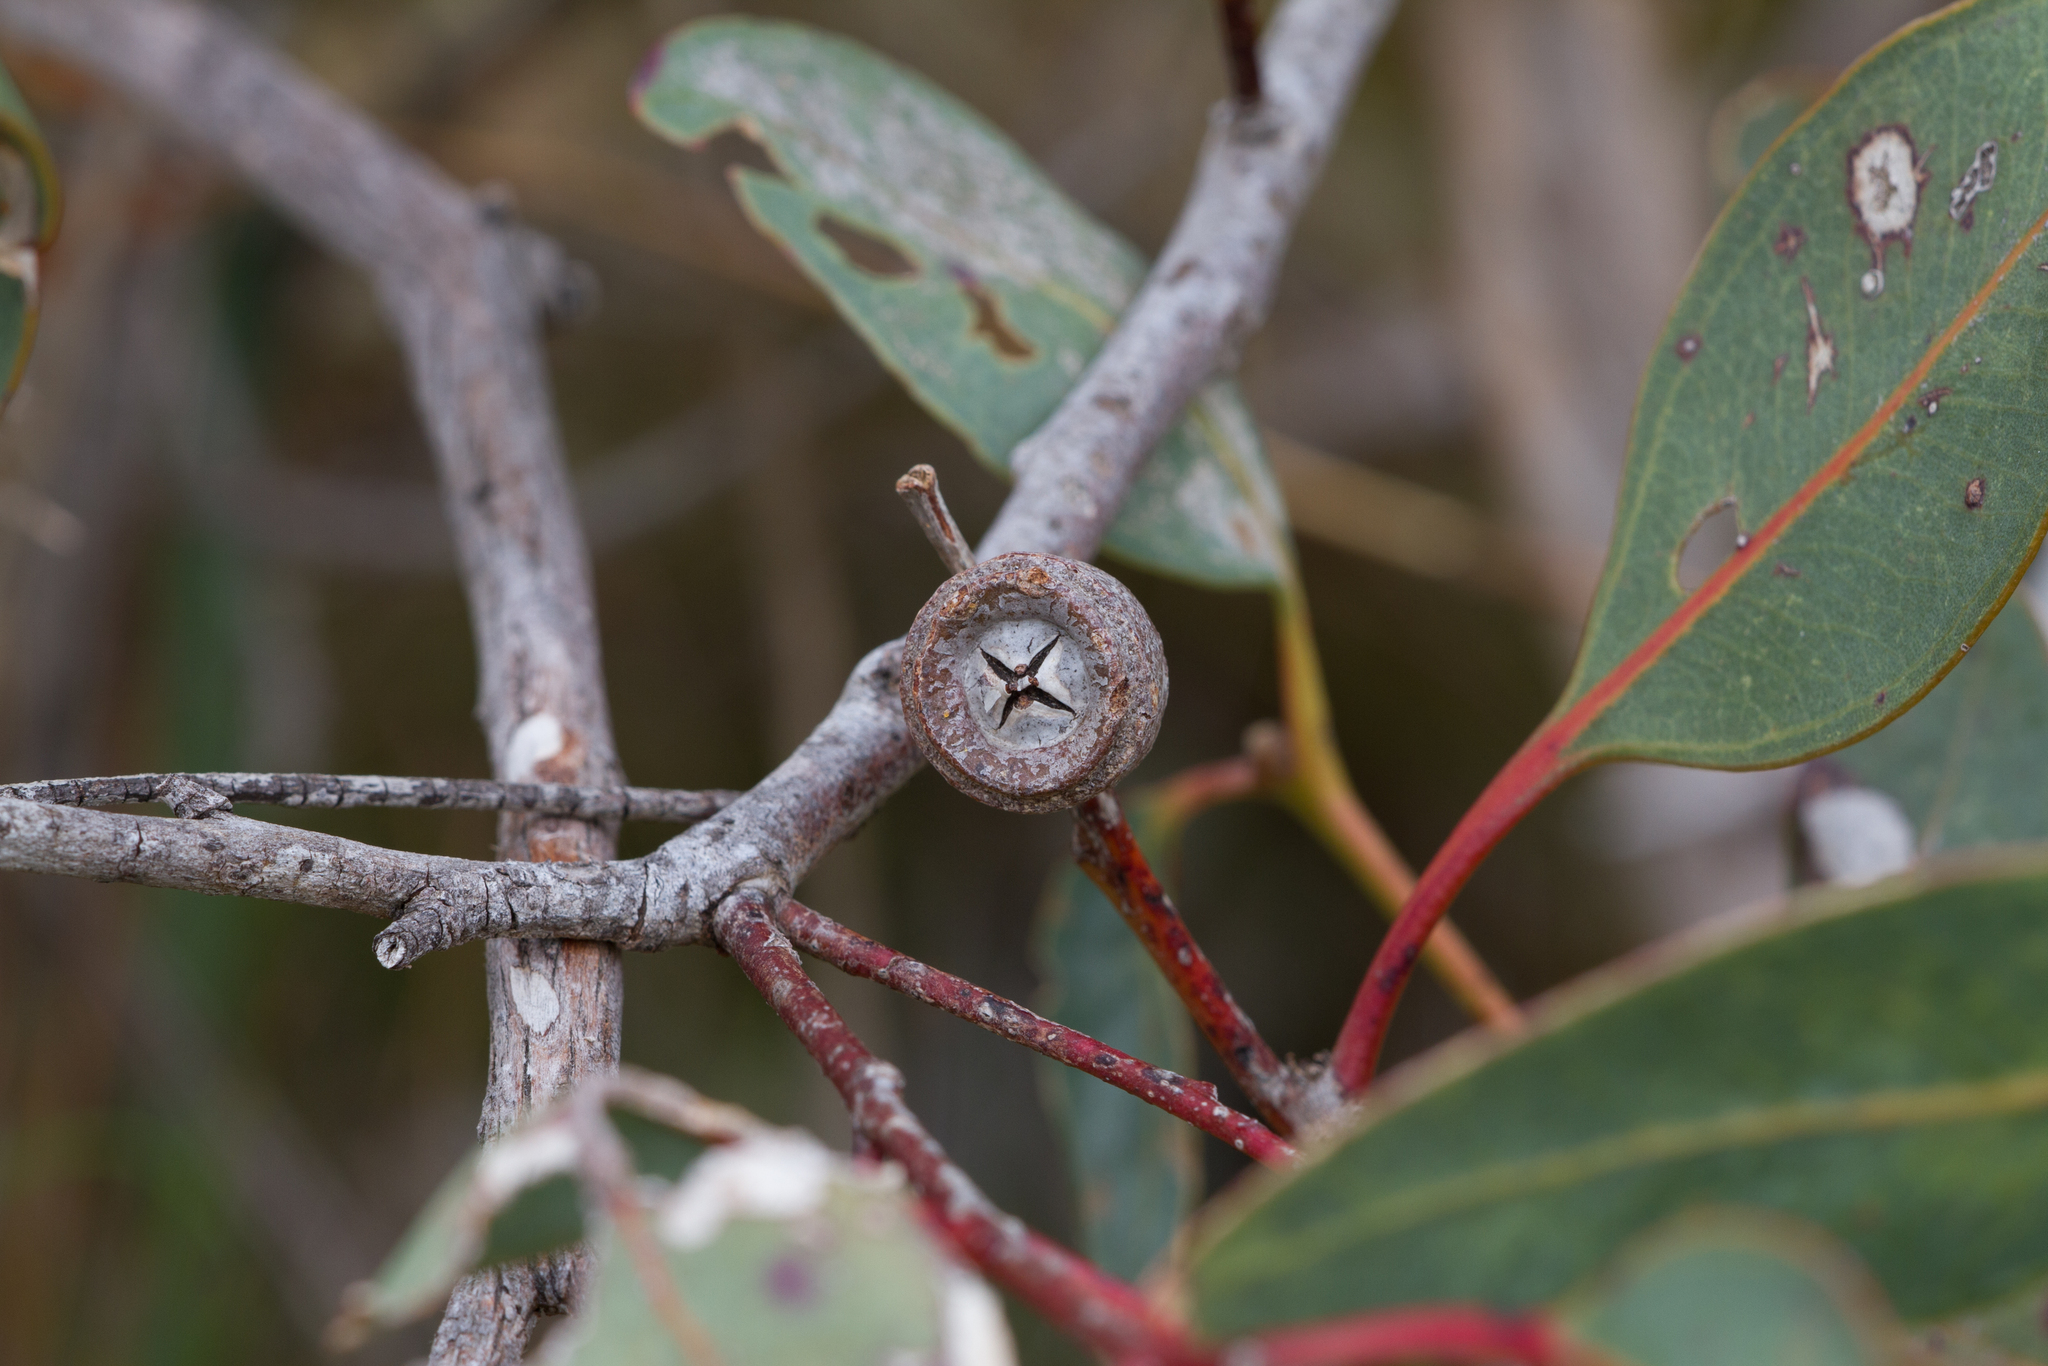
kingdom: Plantae
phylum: Tracheophyta
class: Magnoliopsida
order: Myrtales
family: Myrtaceae
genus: Eucalyptus
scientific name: Eucalyptus cosmophylla
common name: Bog-gum
